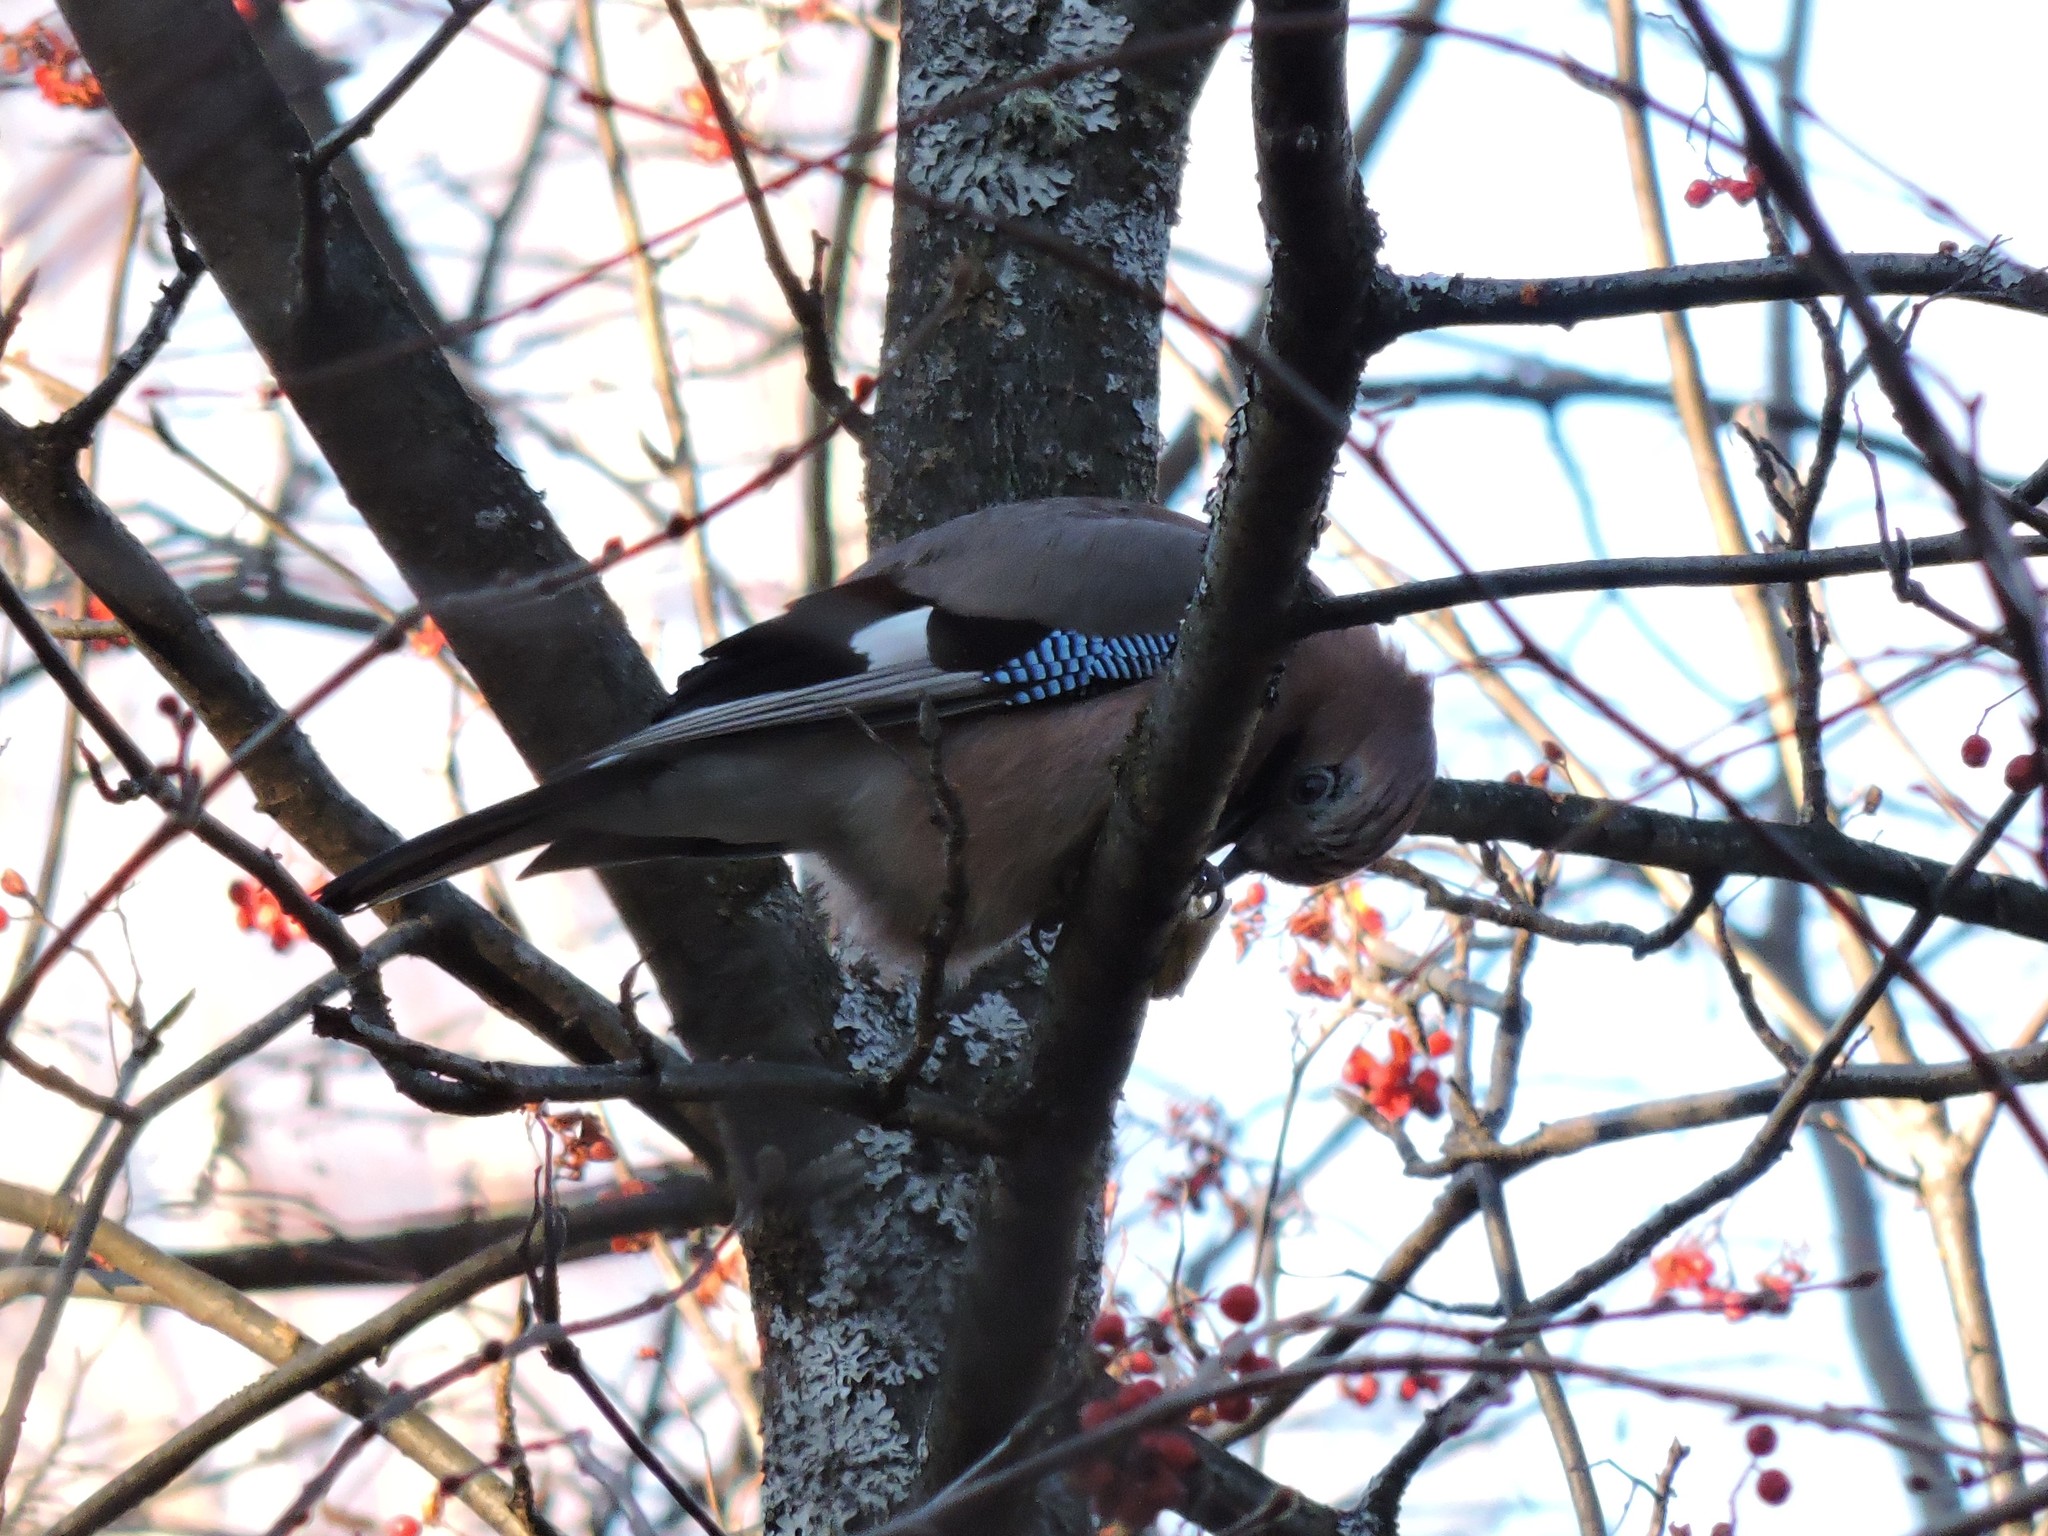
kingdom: Animalia
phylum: Chordata
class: Aves
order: Passeriformes
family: Corvidae
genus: Garrulus
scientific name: Garrulus glandarius
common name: Eurasian jay
